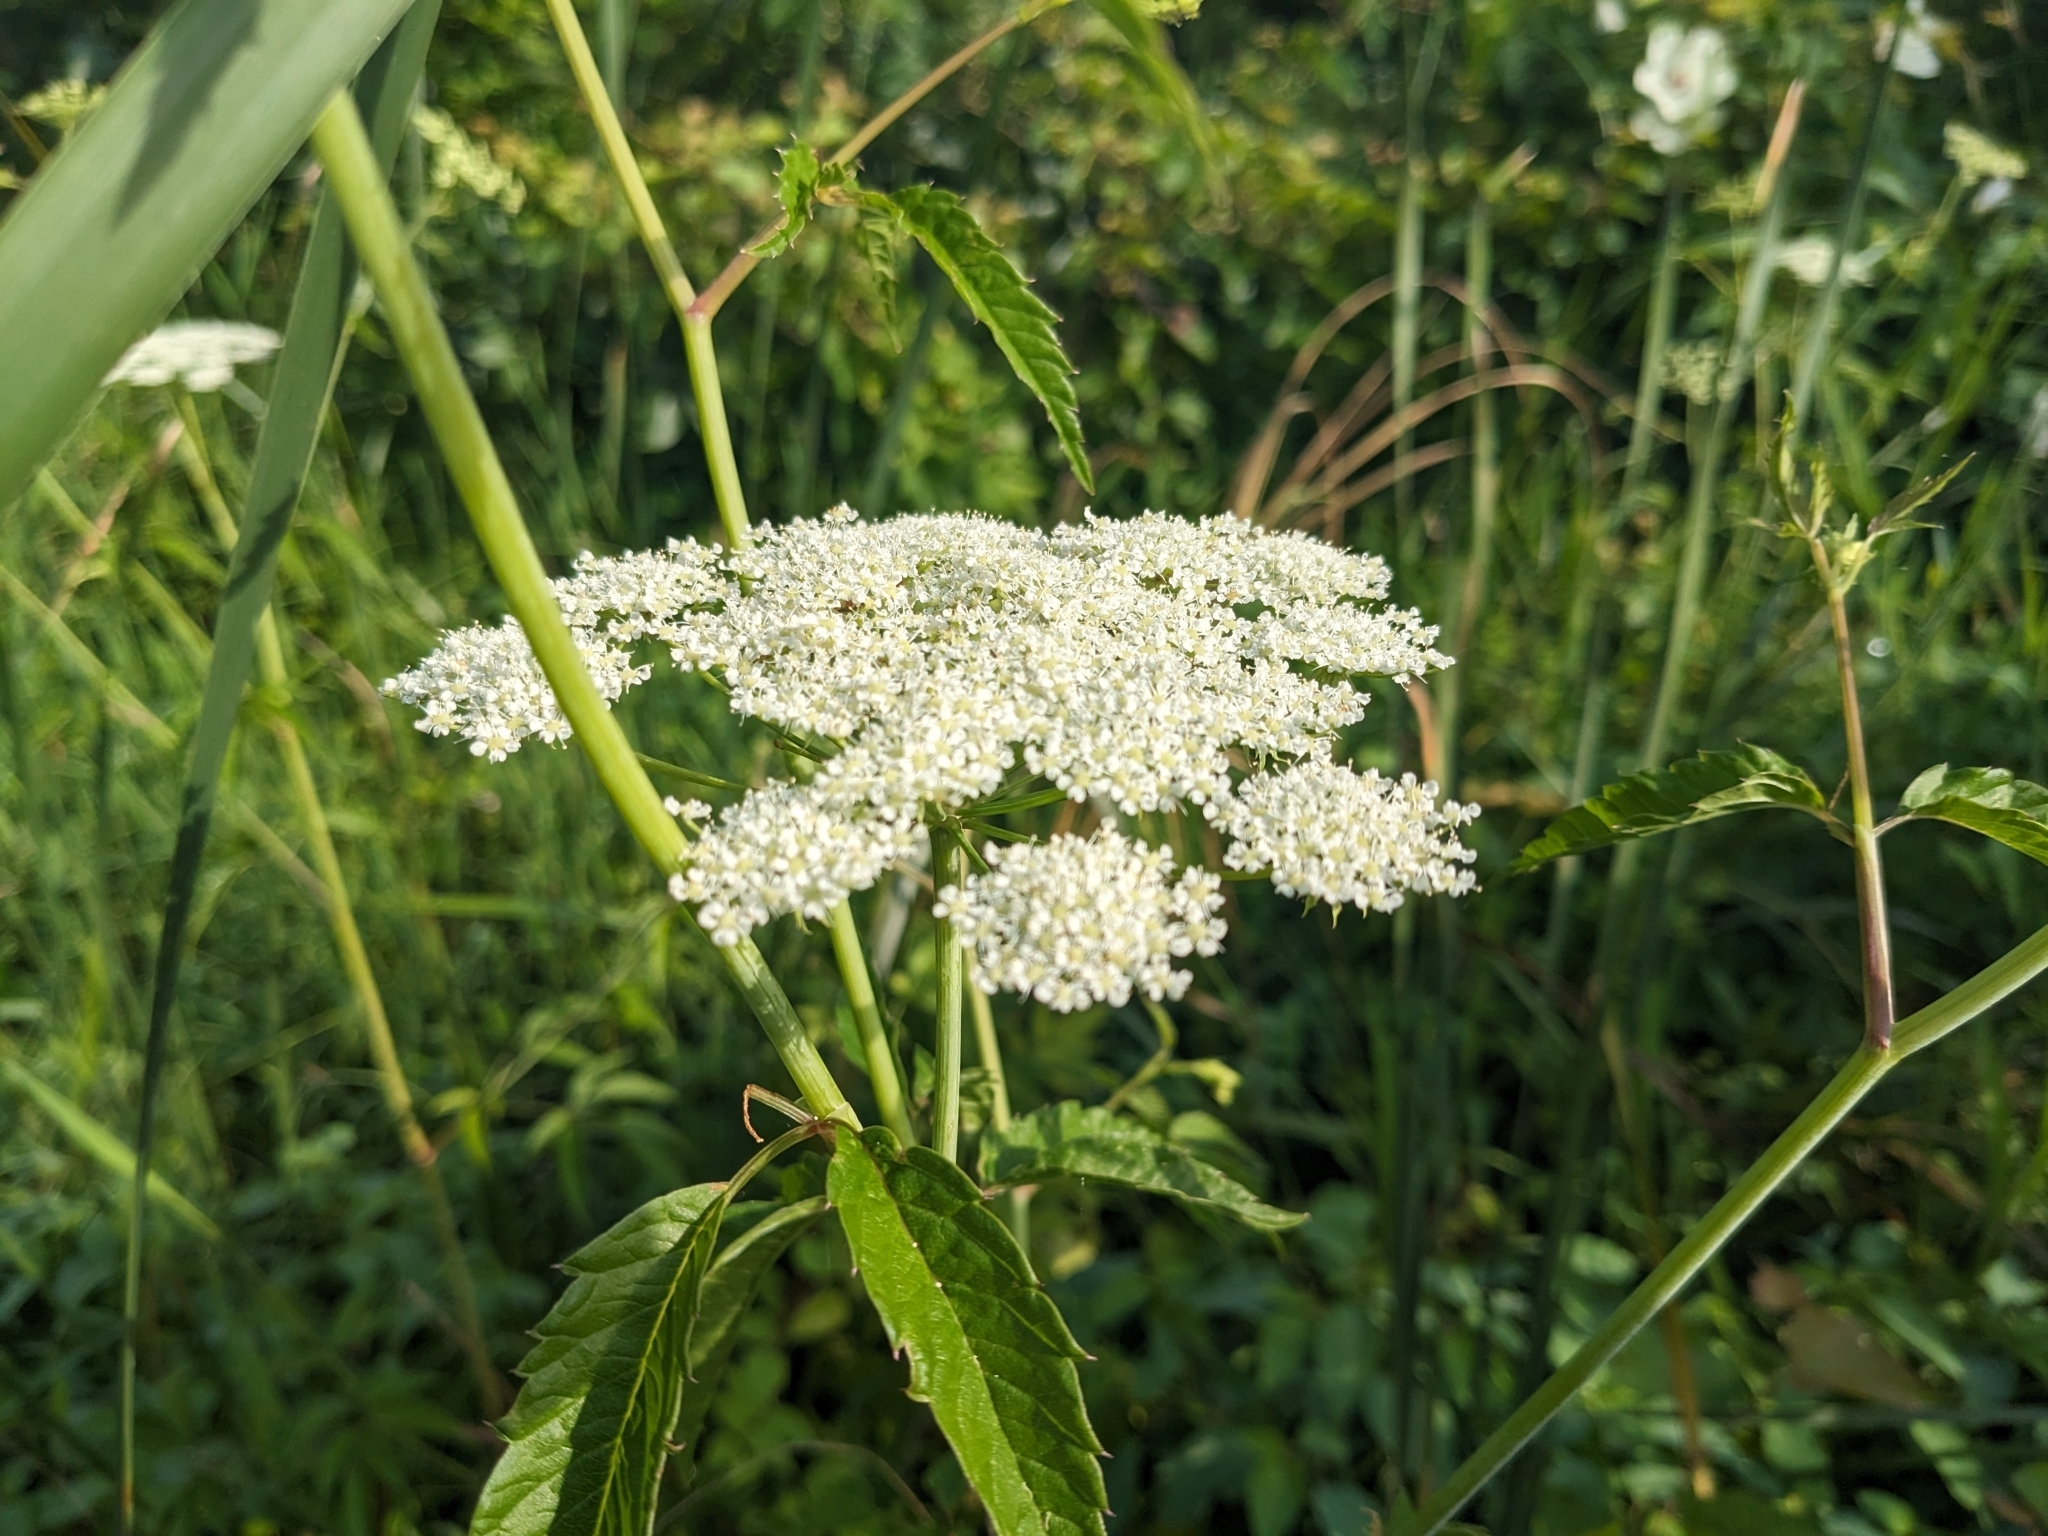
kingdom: Plantae
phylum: Tracheophyta
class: Magnoliopsida
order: Apiales
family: Apiaceae
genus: Cicuta
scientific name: Cicuta maculata
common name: Spotted cowbane
